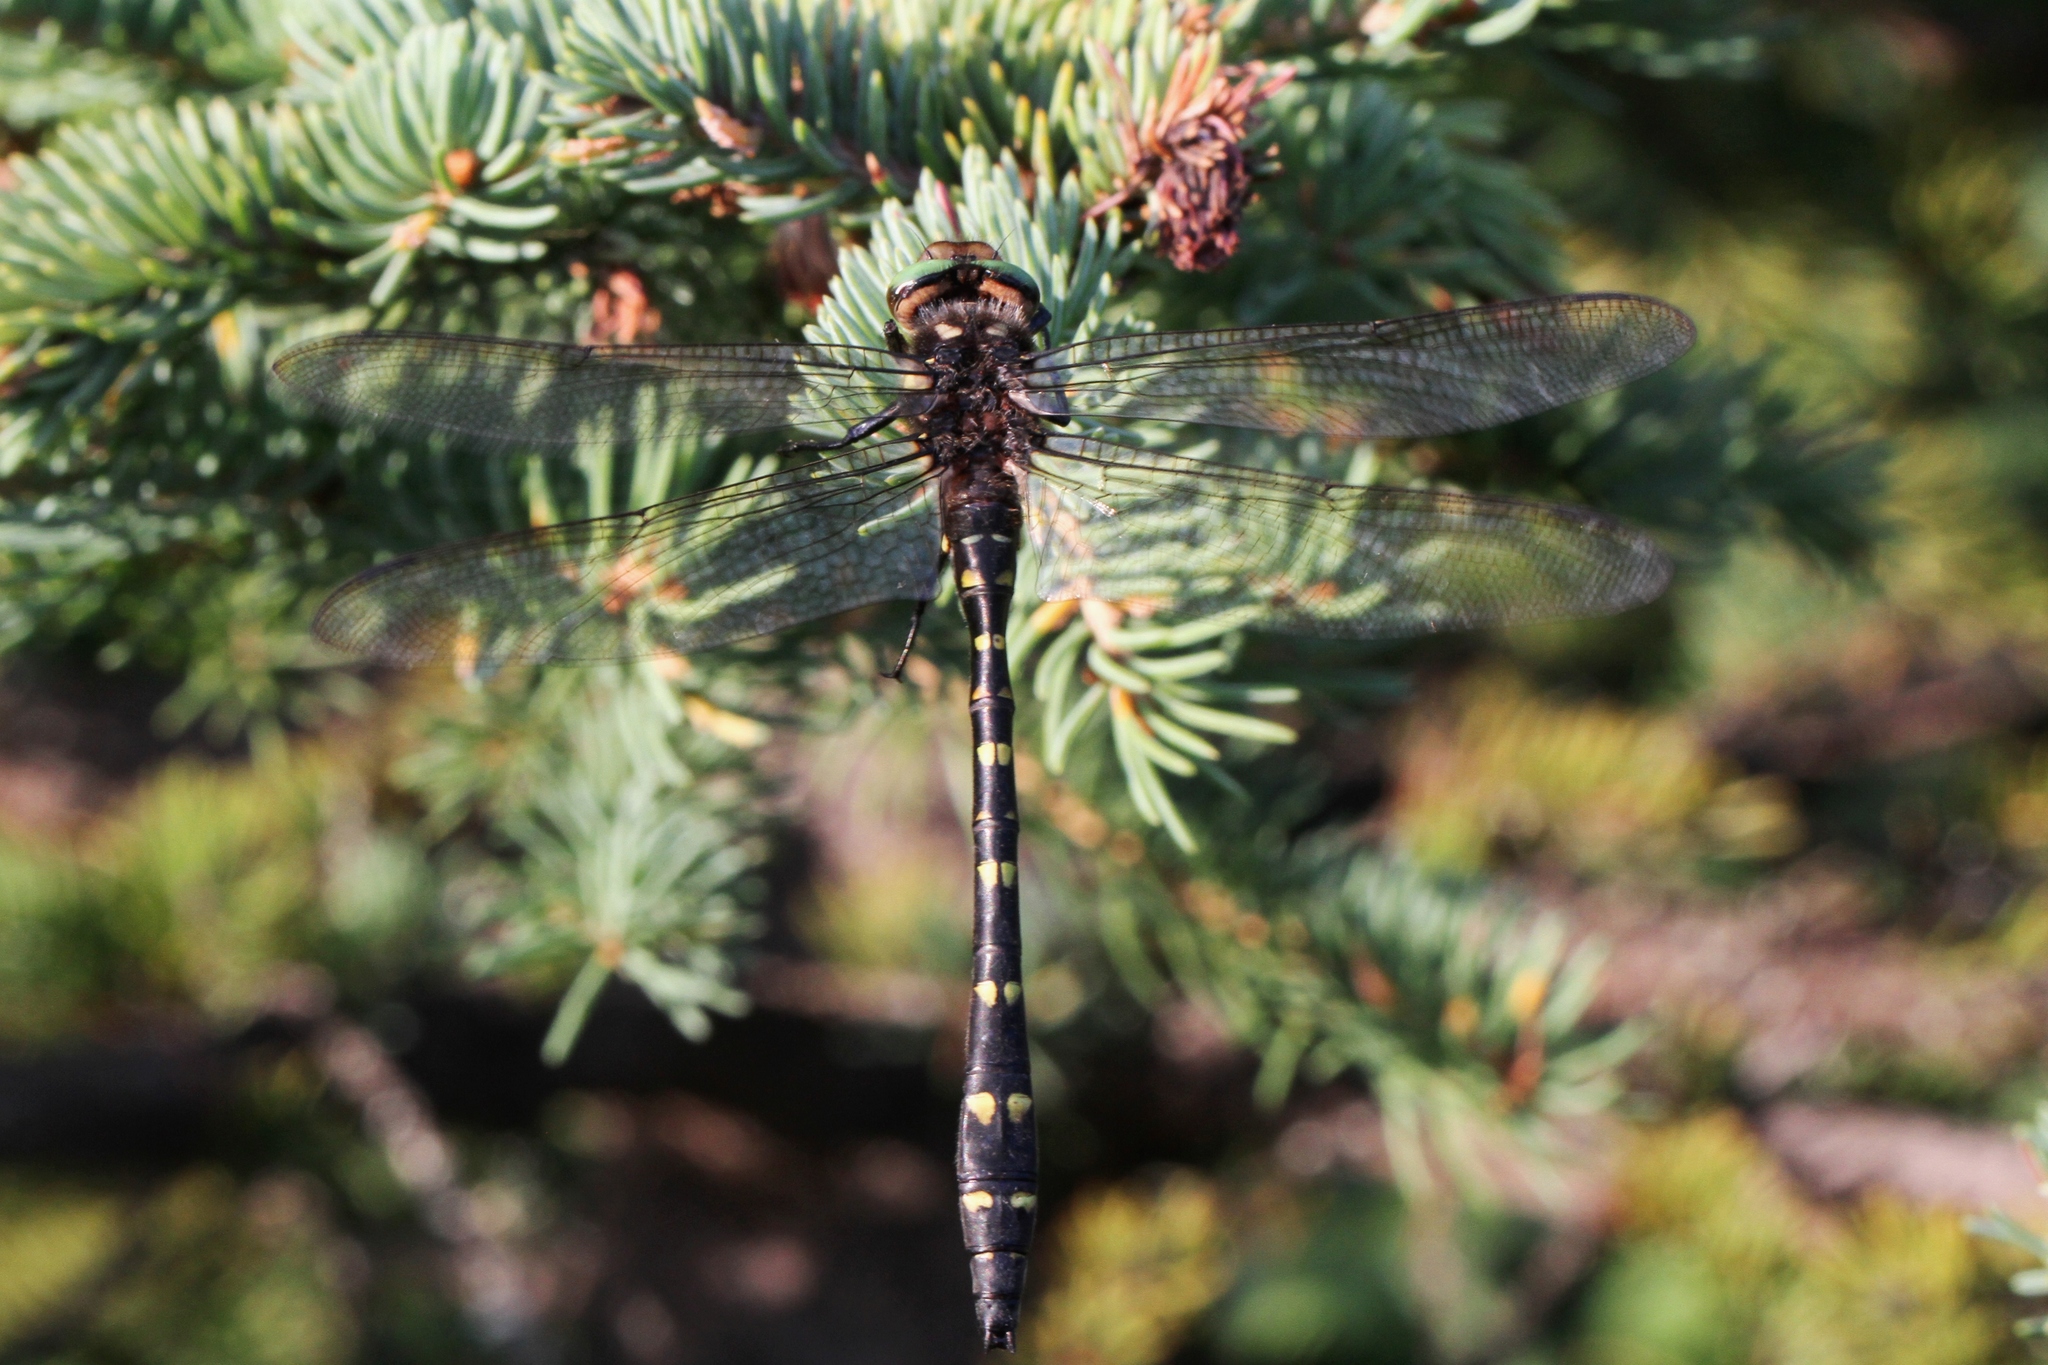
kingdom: Animalia
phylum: Arthropoda
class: Insecta
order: Odonata
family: Cordulegastridae
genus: Cordulegaster
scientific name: Cordulegaster maculata
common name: Twin-spotted spiketail
